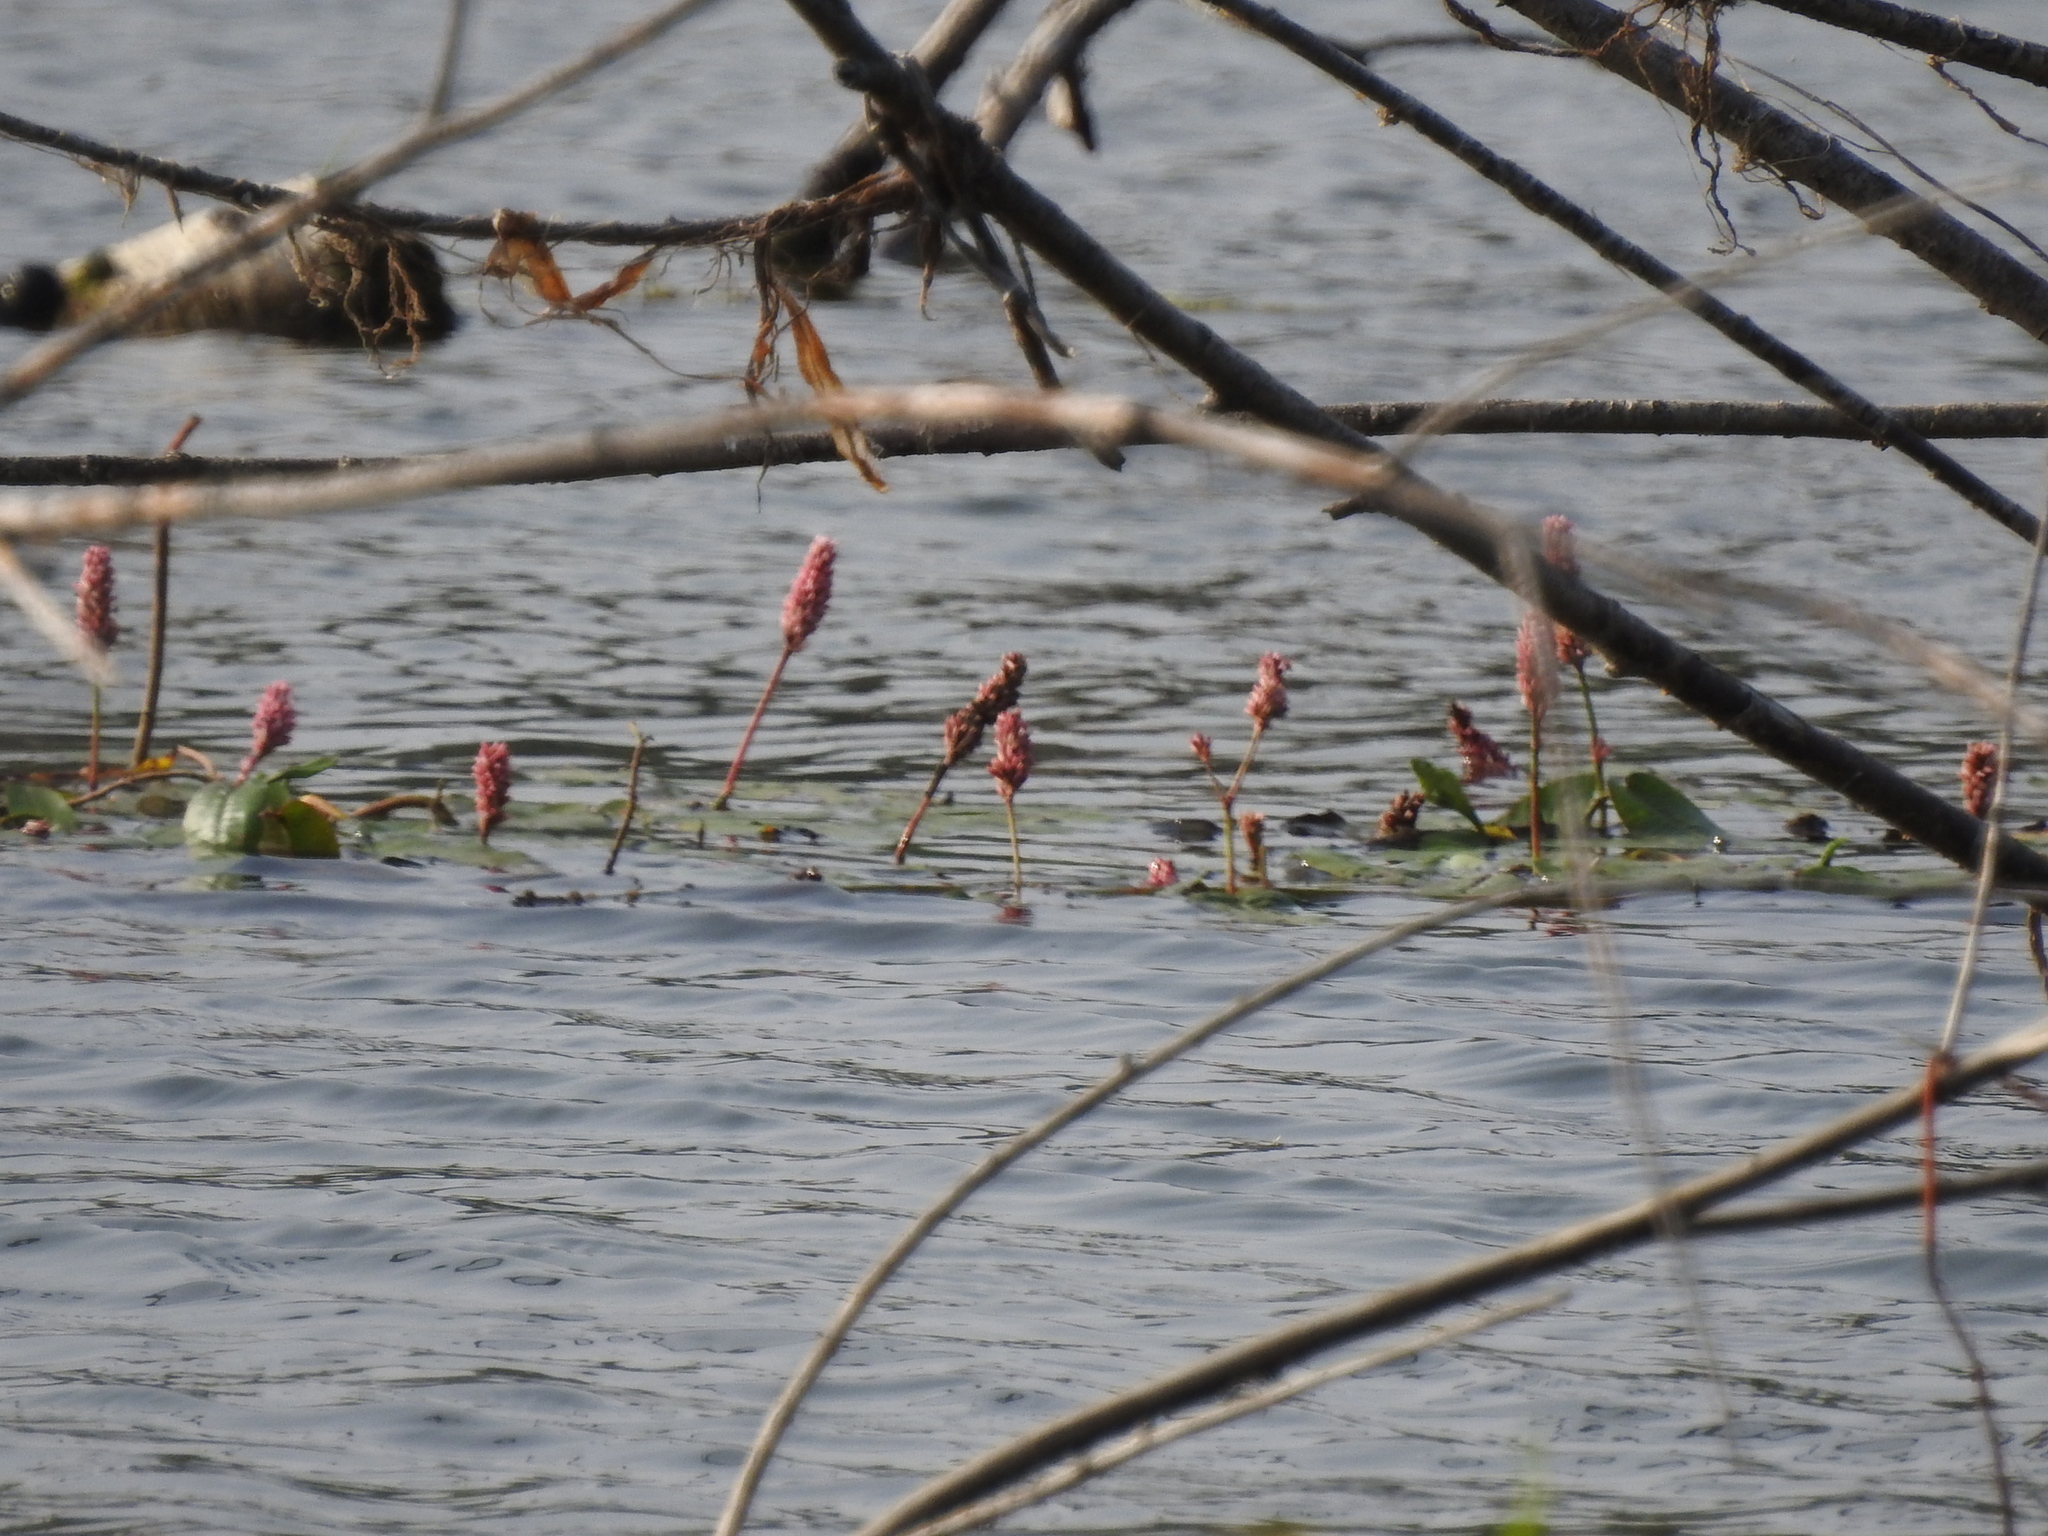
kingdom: Plantae
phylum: Tracheophyta
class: Magnoliopsida
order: Caryophyllales
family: Polygonaceae
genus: Persicaria
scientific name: Persicaria amphibia
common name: Amphibious bistort
